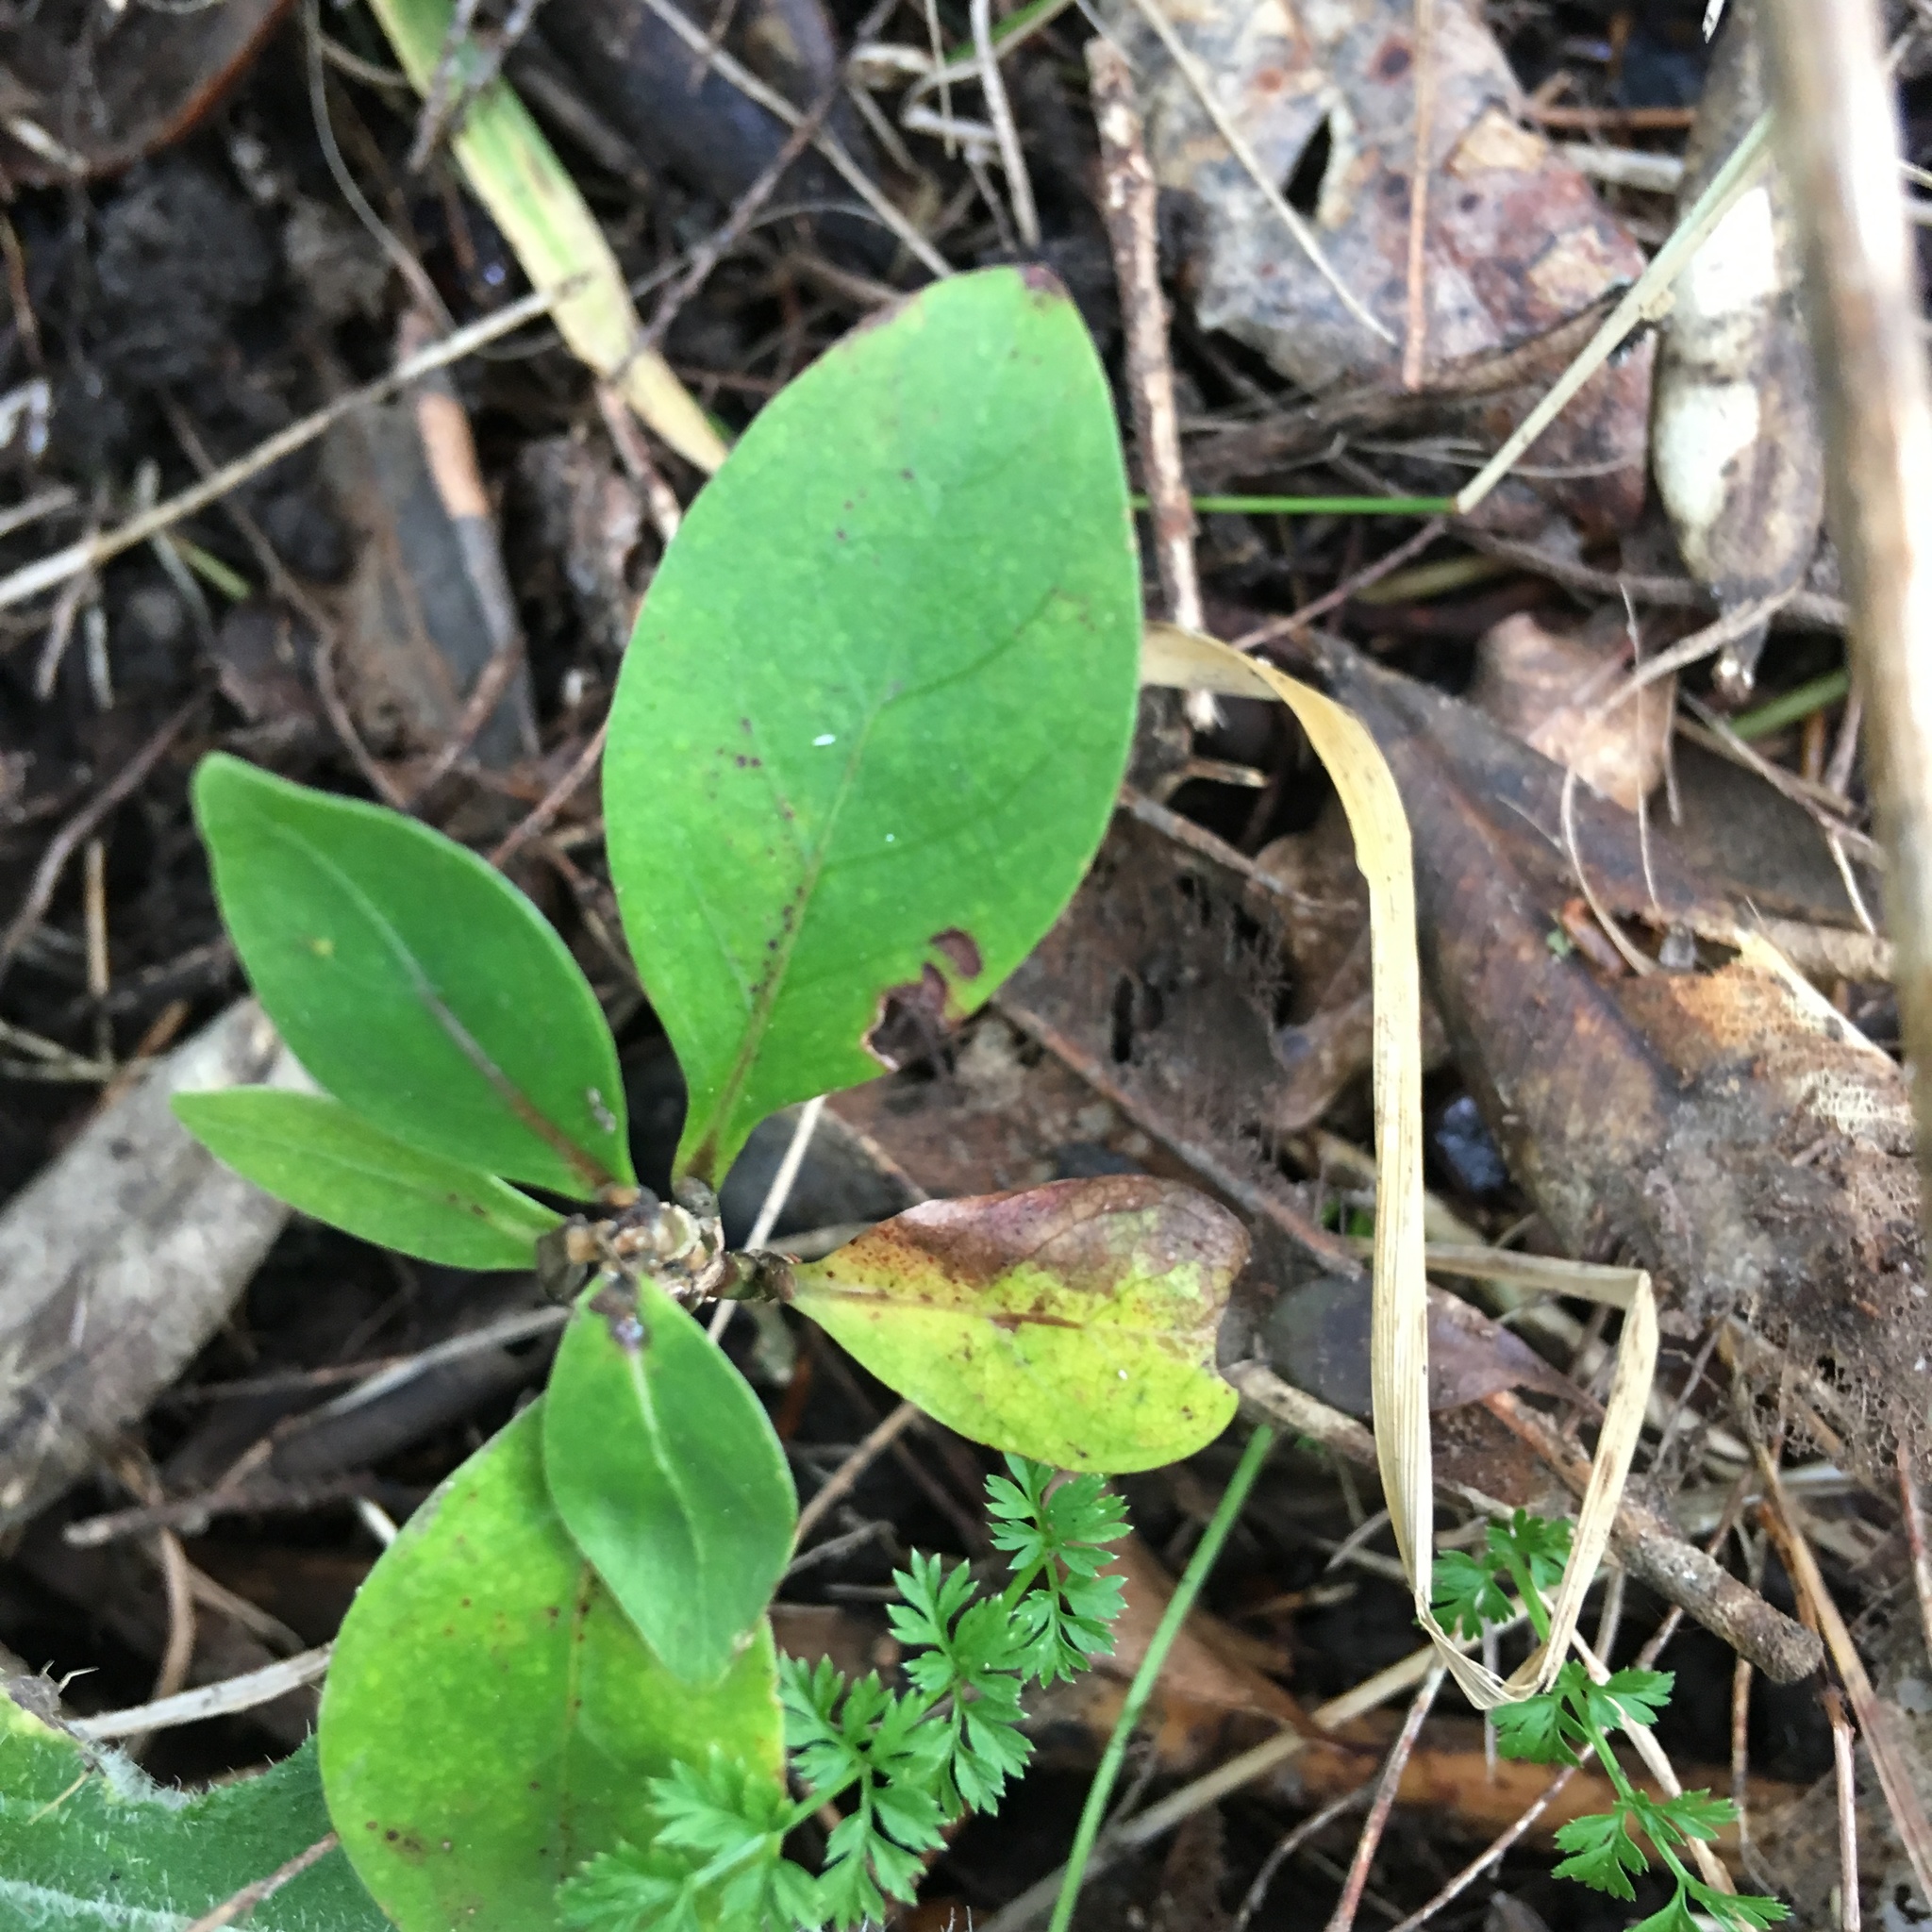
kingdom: Plantae
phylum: Tracheophyta
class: Magnoliopsida
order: Gentianales
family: Rubiaceae
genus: Coprosma
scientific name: Coprosma robusta
